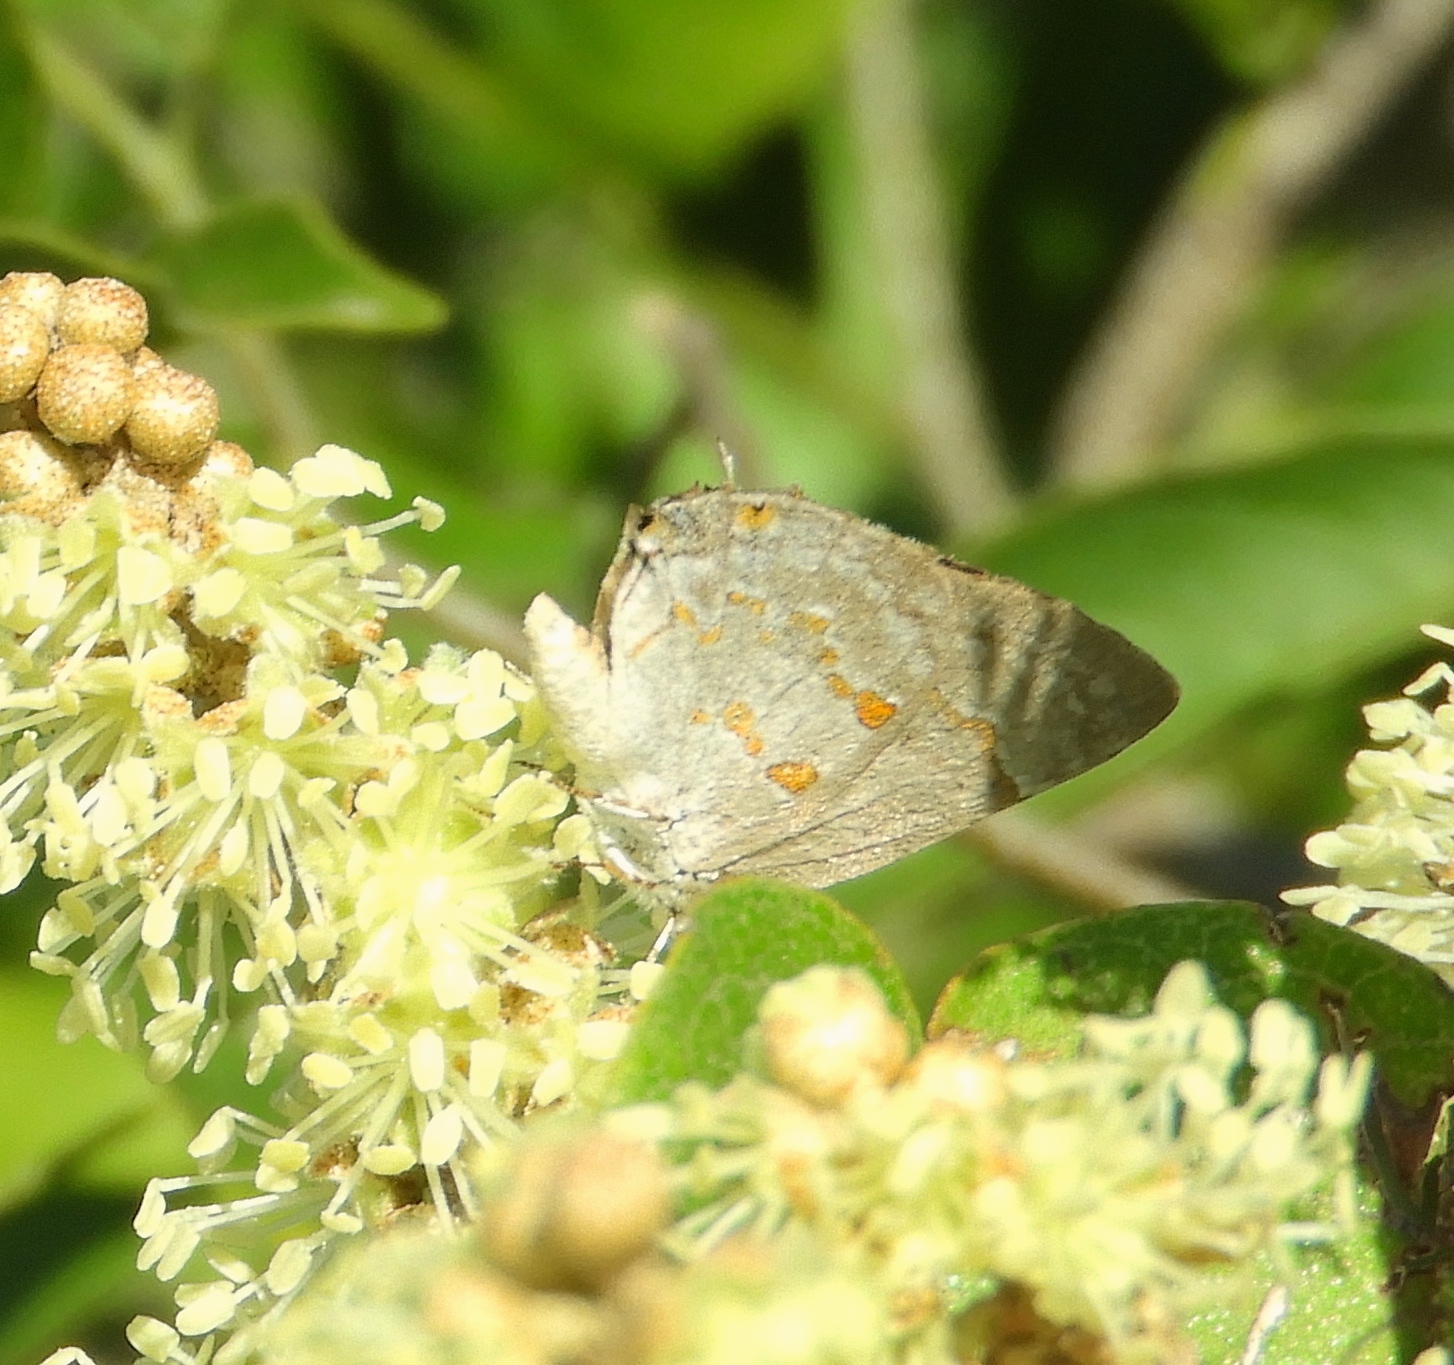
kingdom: Animalia
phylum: Arthropoda
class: Insecta
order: Lepidoptera
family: Lycaenidae
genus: Tmolus
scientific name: Tmolus echion
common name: Red-spotted hairstreak
